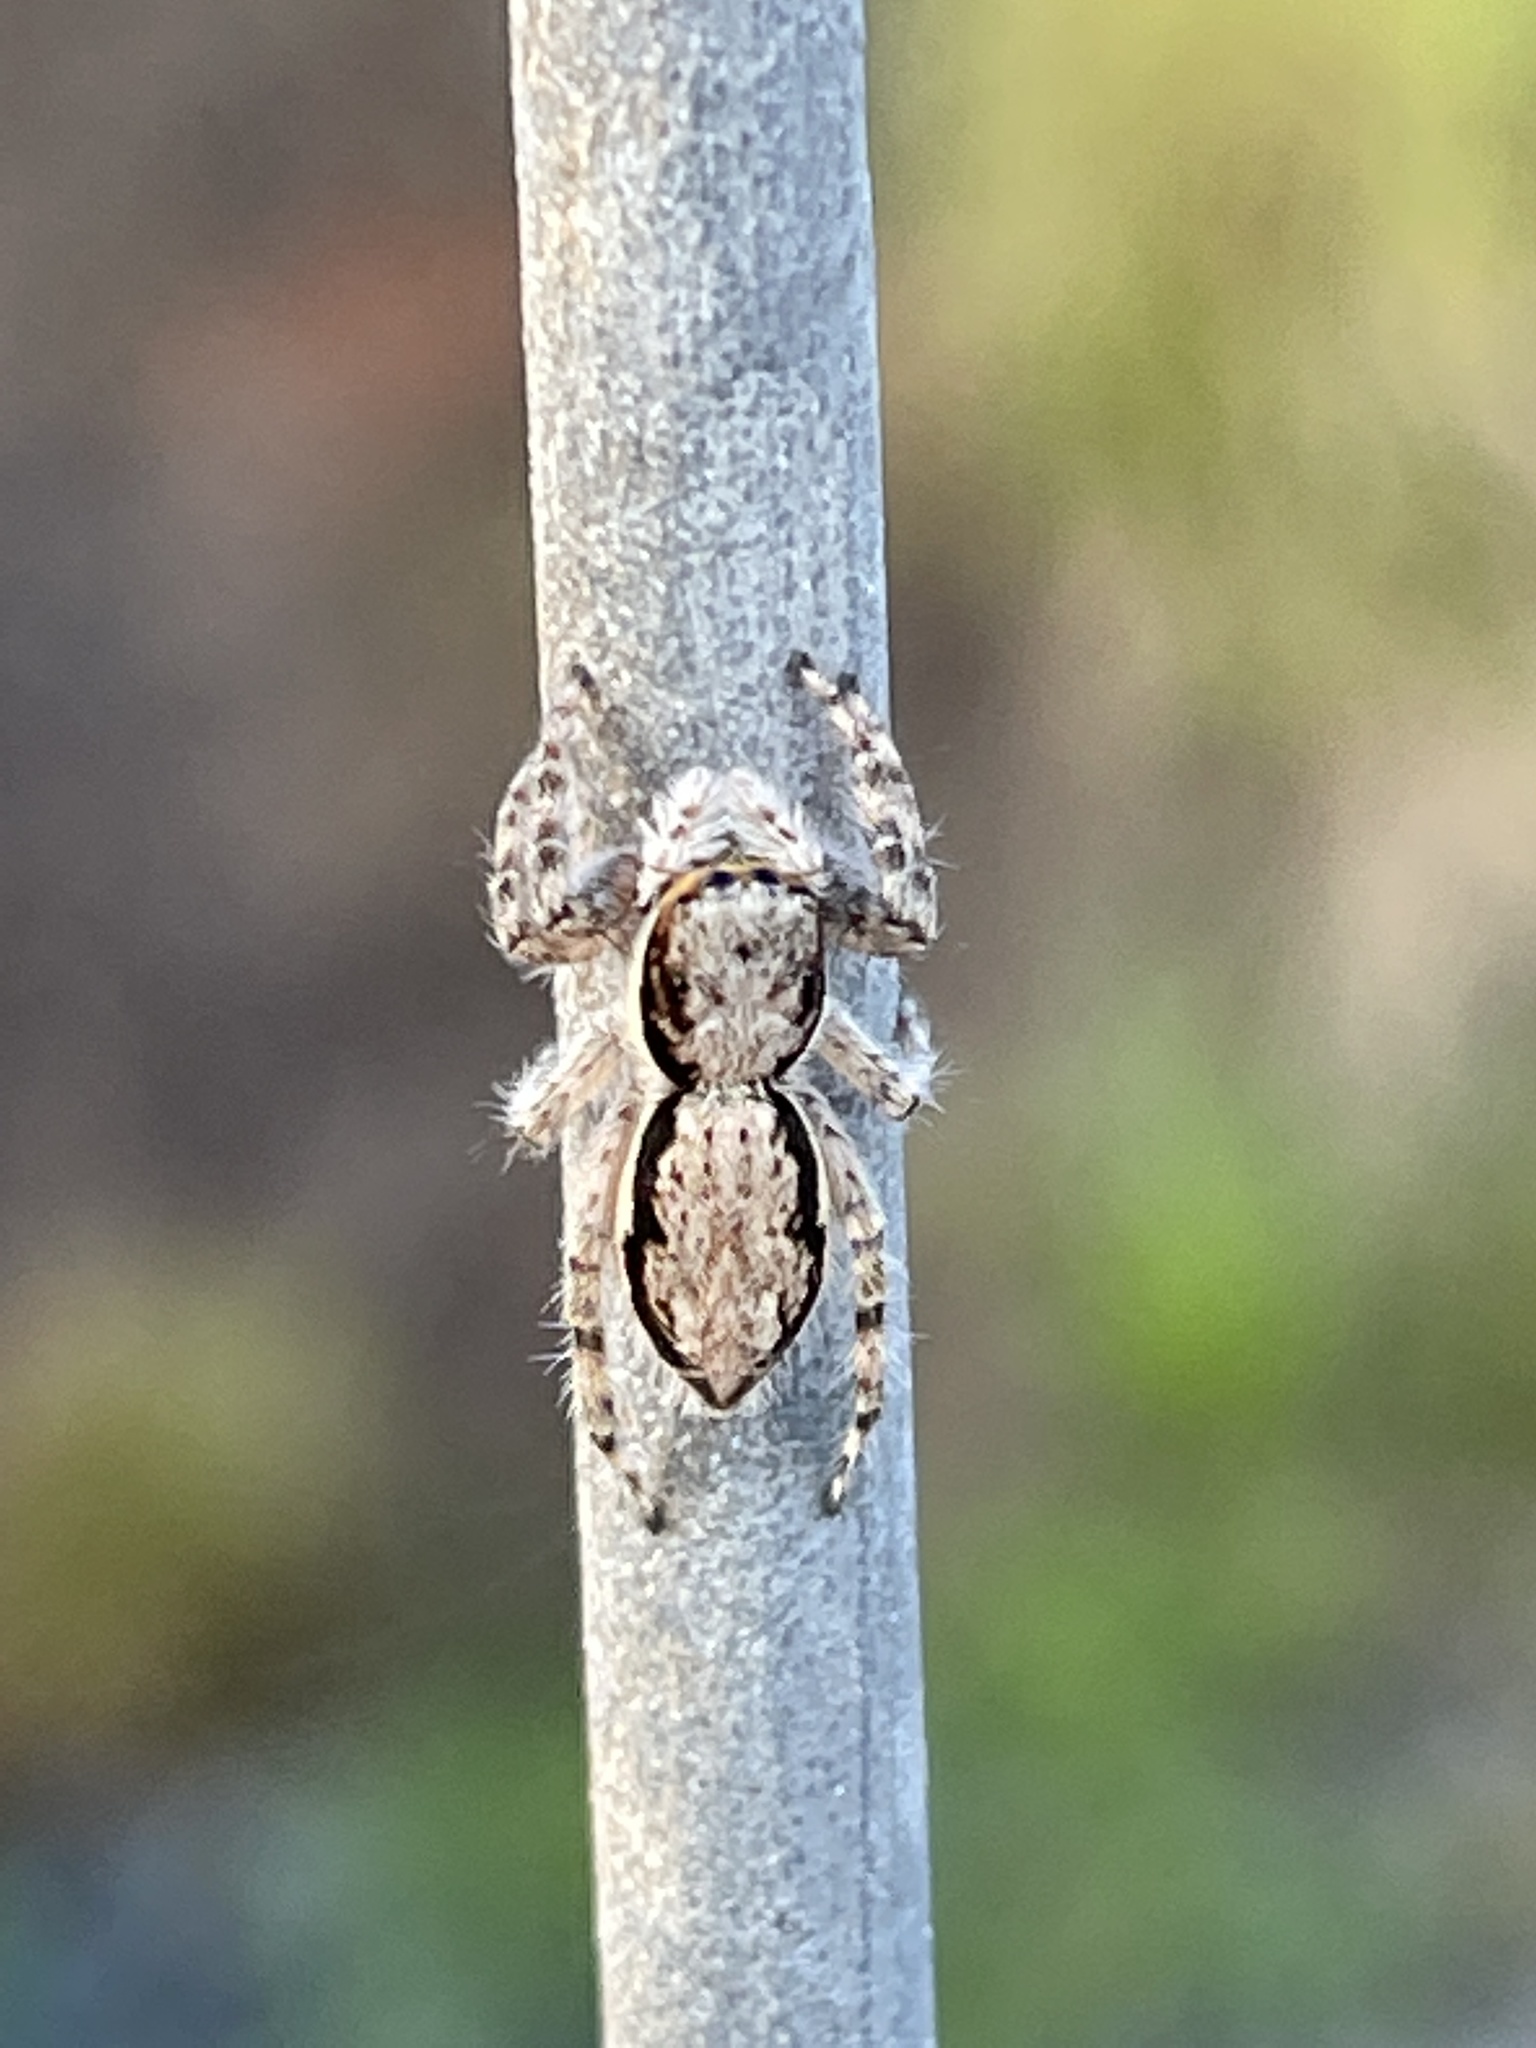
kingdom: Animalia
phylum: Arthropoda
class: Arachnida
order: Araneae
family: Salticidae
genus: Menemerus
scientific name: Menemerus bivittatus
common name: Gray wall jumper
